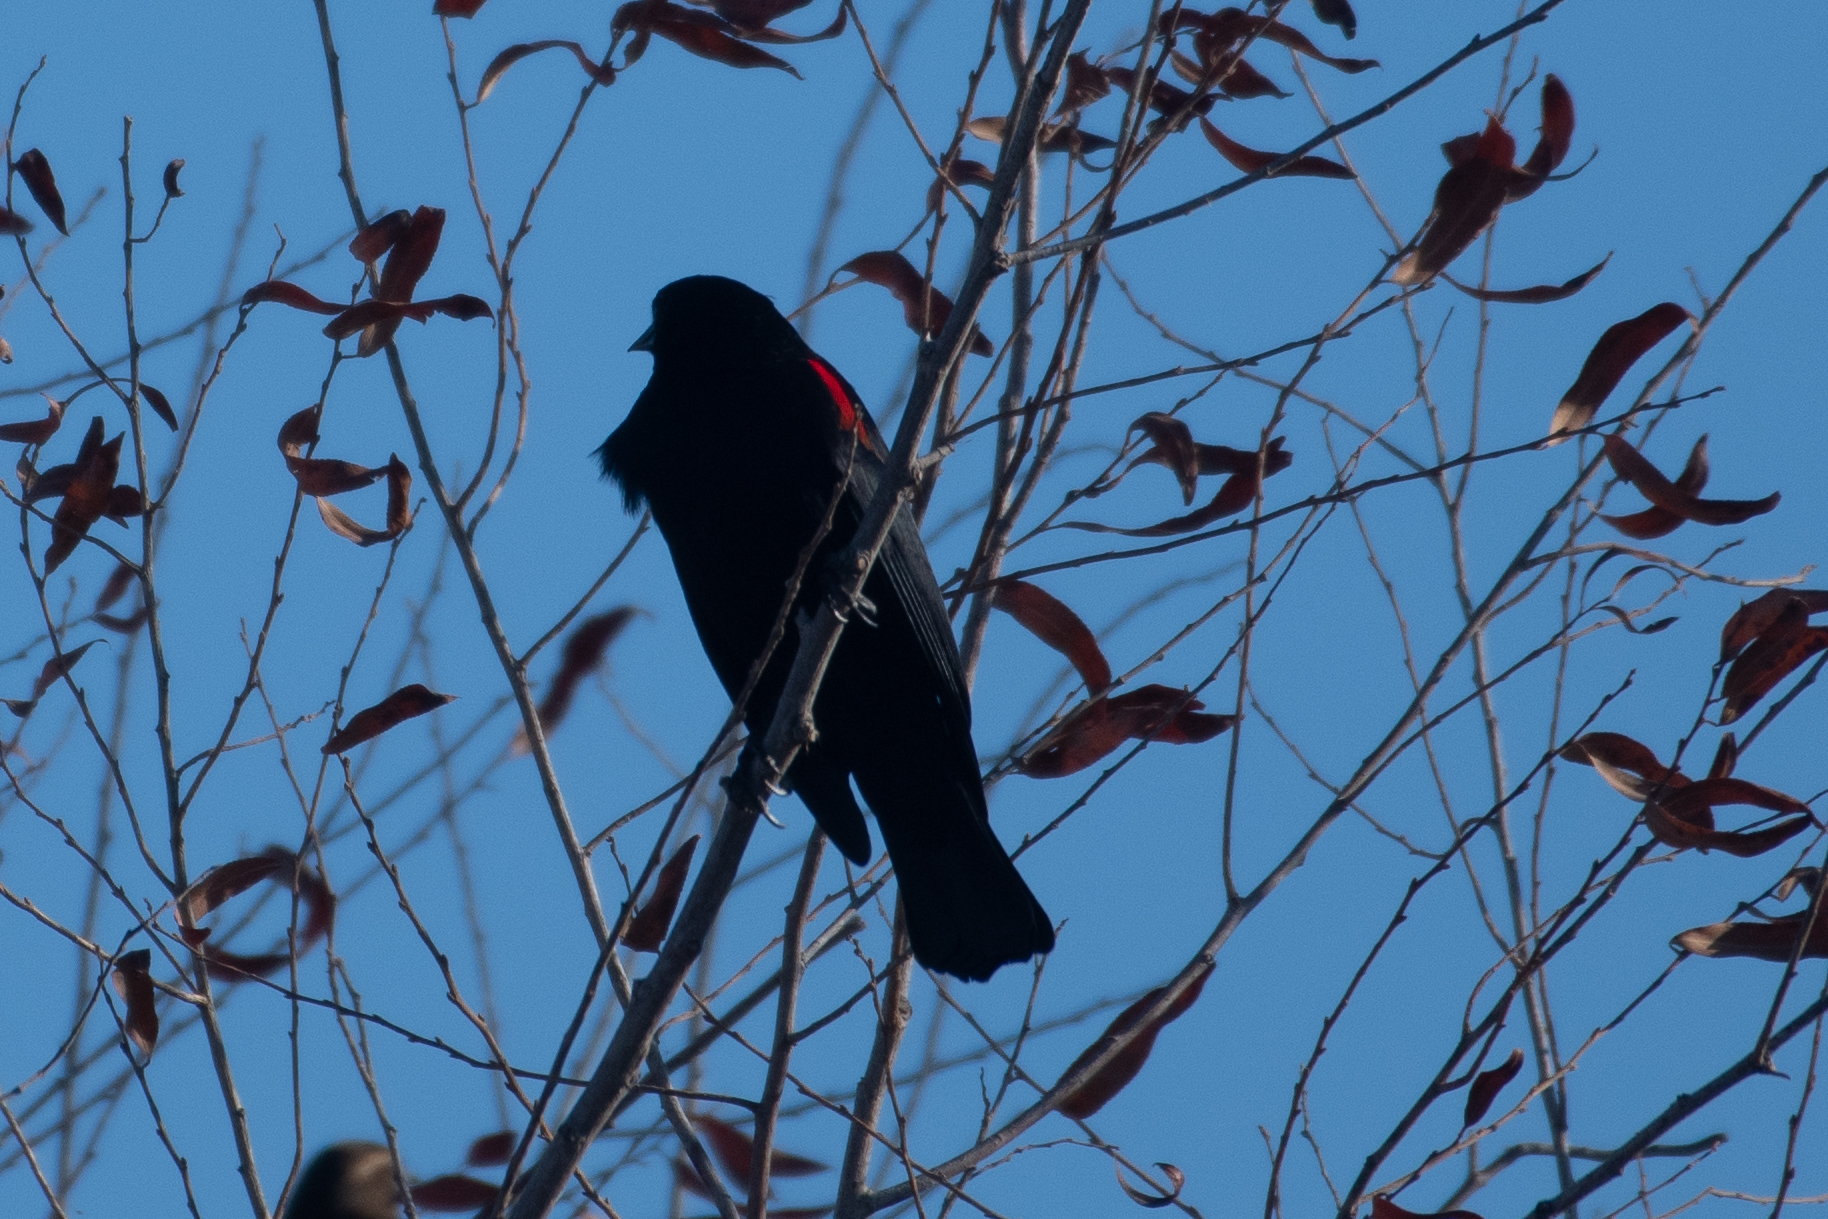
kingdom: Animalia
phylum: Chordata
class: Aves
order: Passeriformes
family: Icteridae
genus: Agelaius
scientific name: Agelaius phoeniceus
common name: Red-winged blackbird
